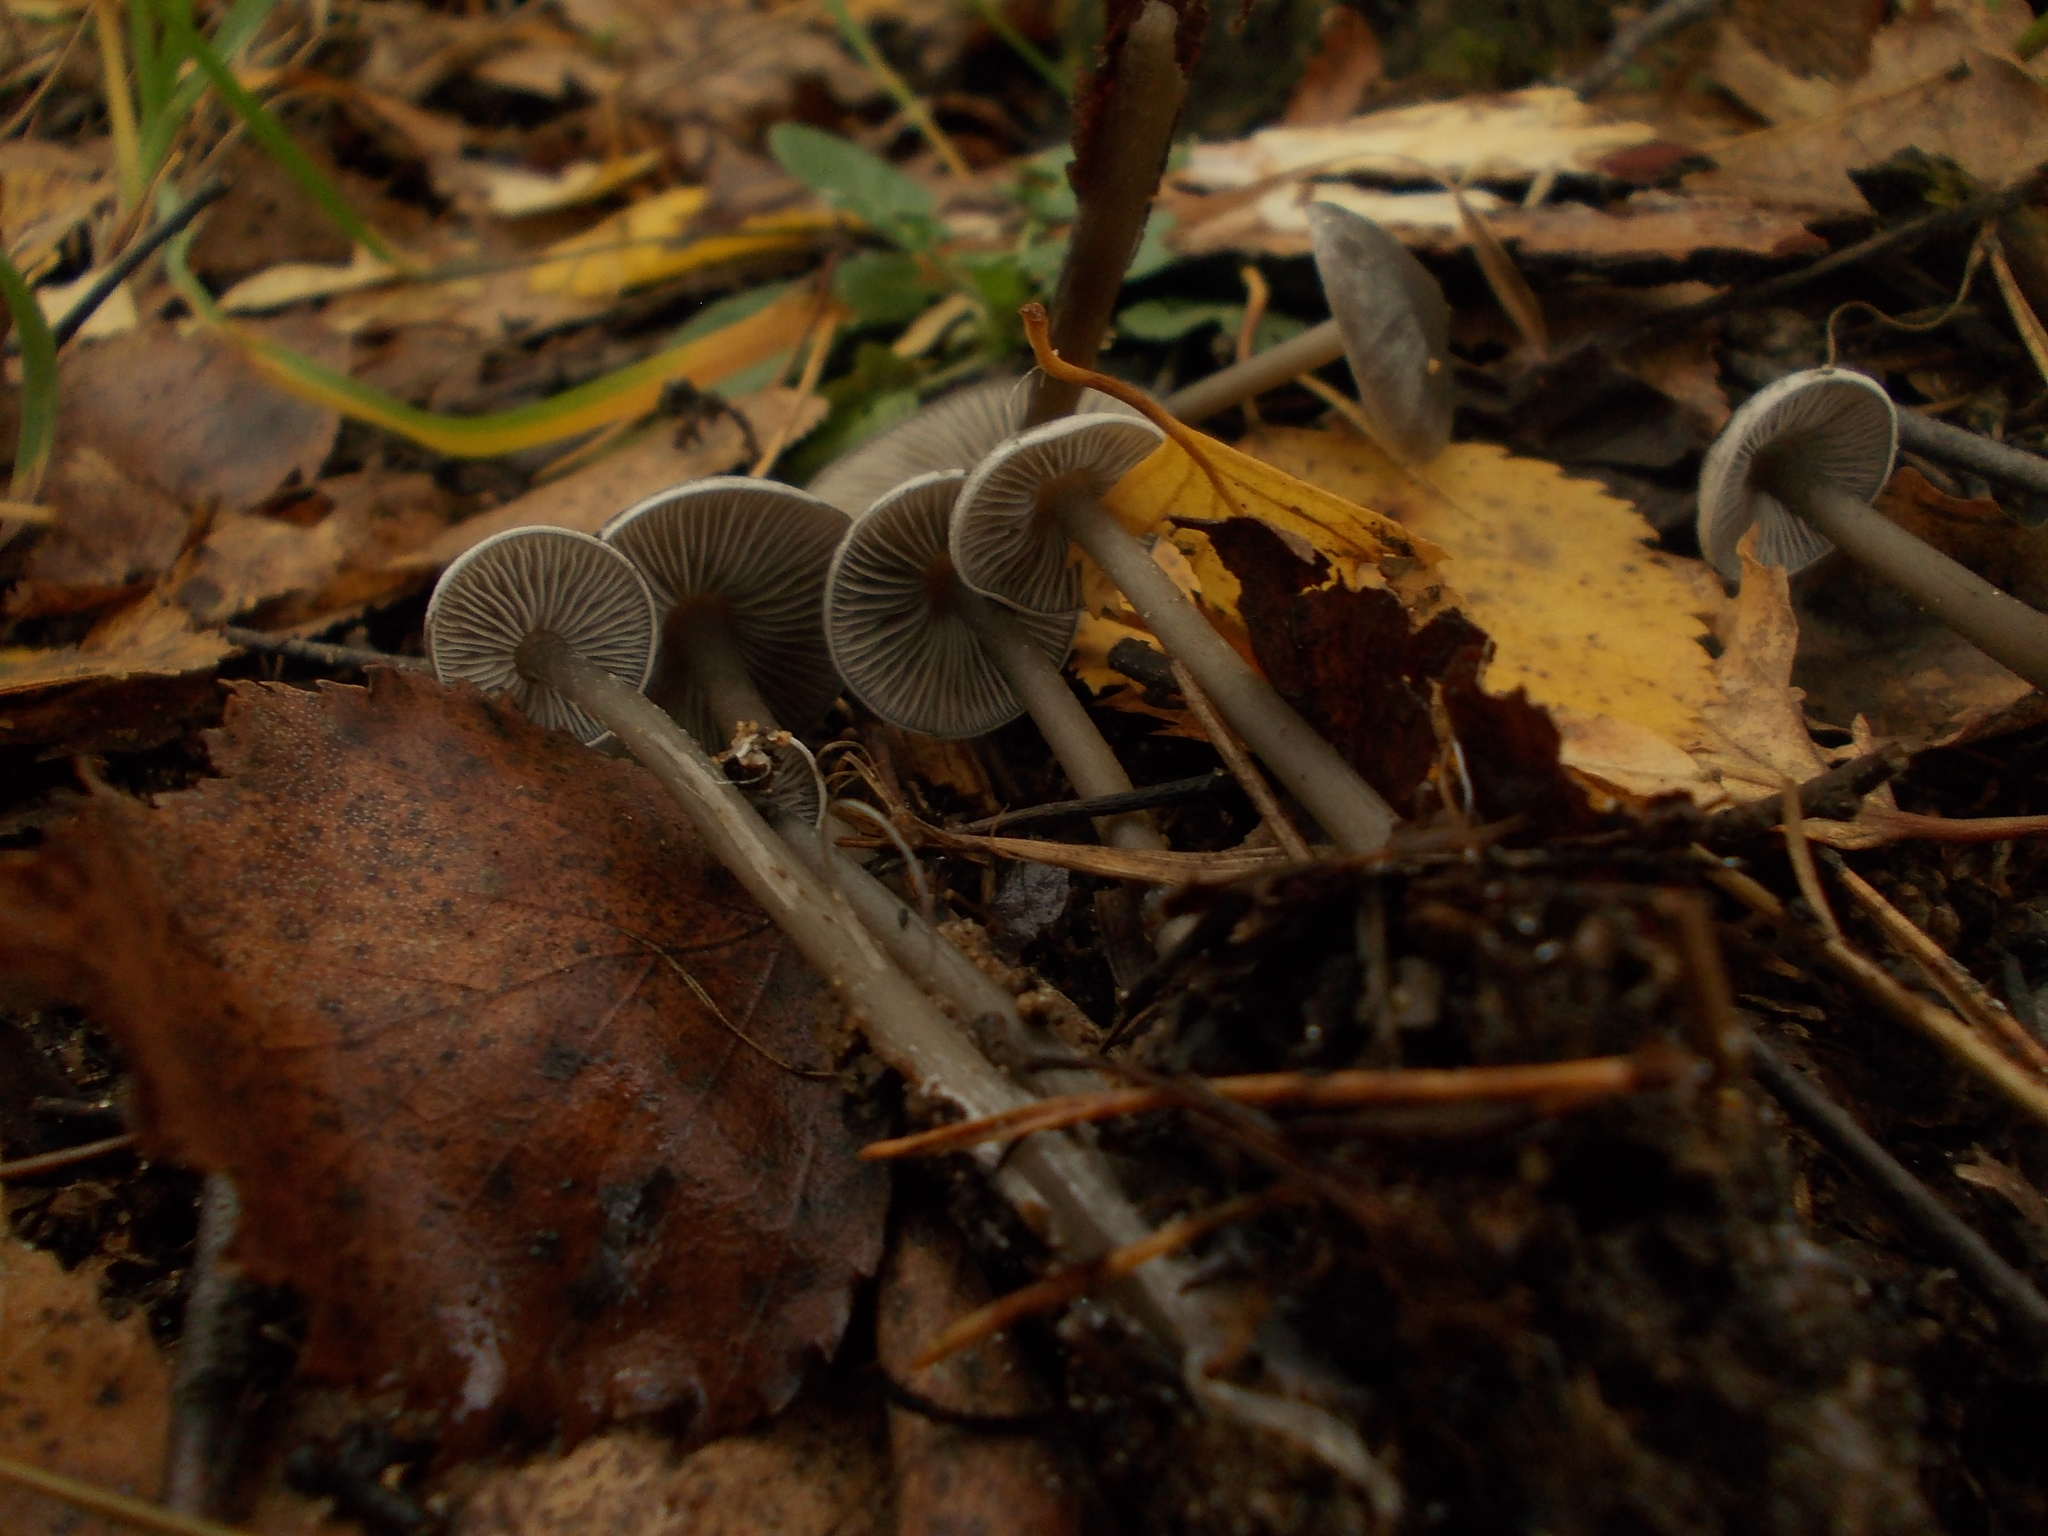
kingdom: Fungi
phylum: Basidiomycota
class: Agaricomycetes
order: Agaricales
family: Lyophyllaceae
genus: Tephrocybe
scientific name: Tephrocybe rancida
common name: Rancid greyling
